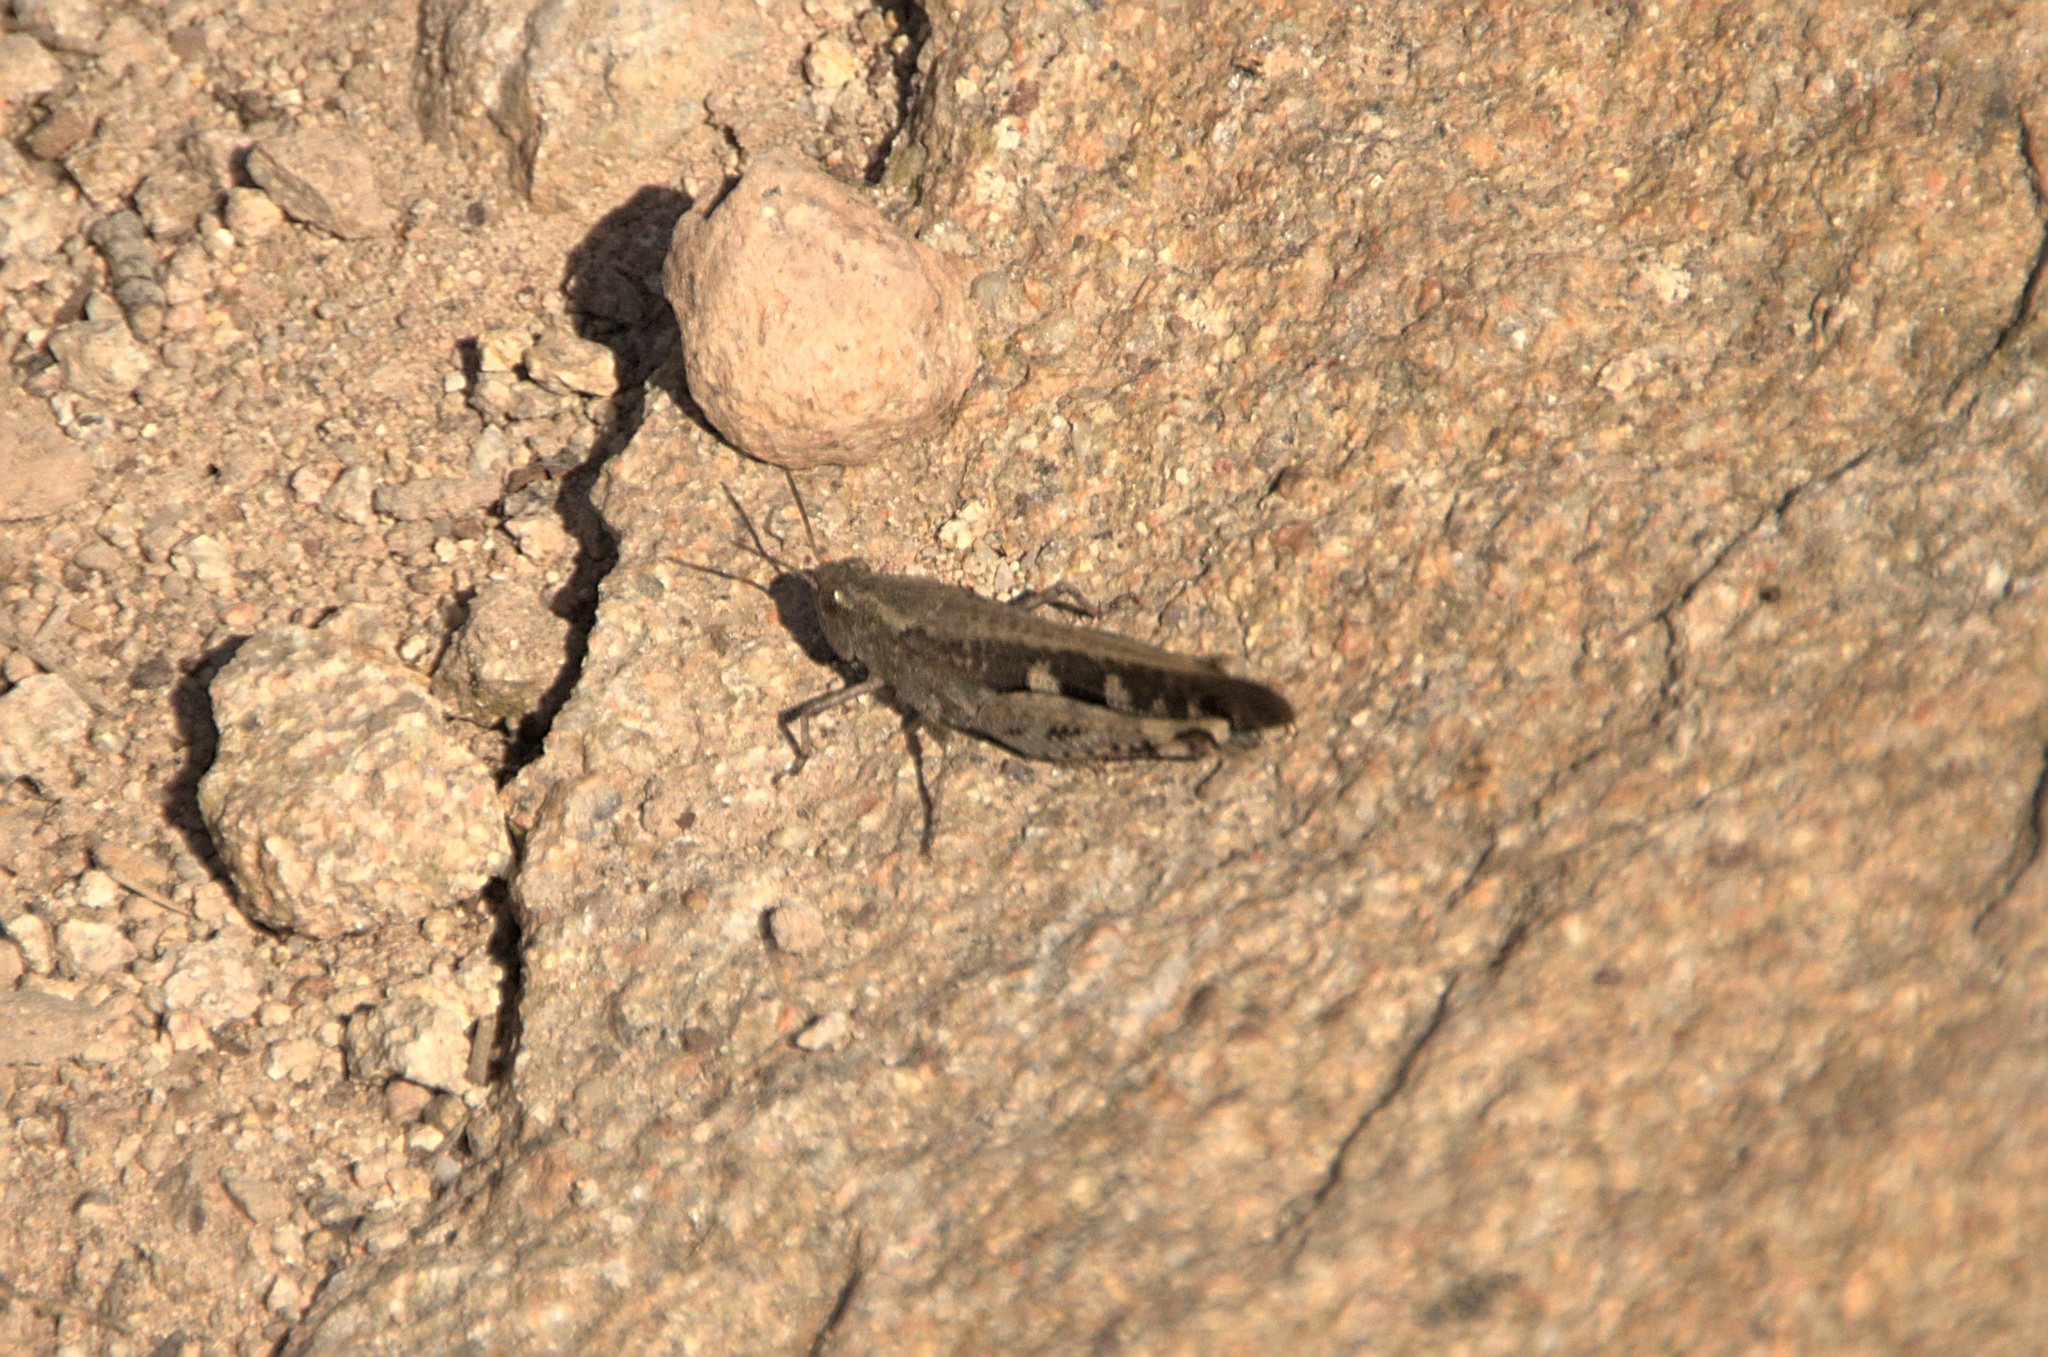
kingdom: Animalia
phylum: Arthropoda
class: Insecta
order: Orthoptera
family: Acrididae
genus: Aiolopus
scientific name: Aiolopus strepens
